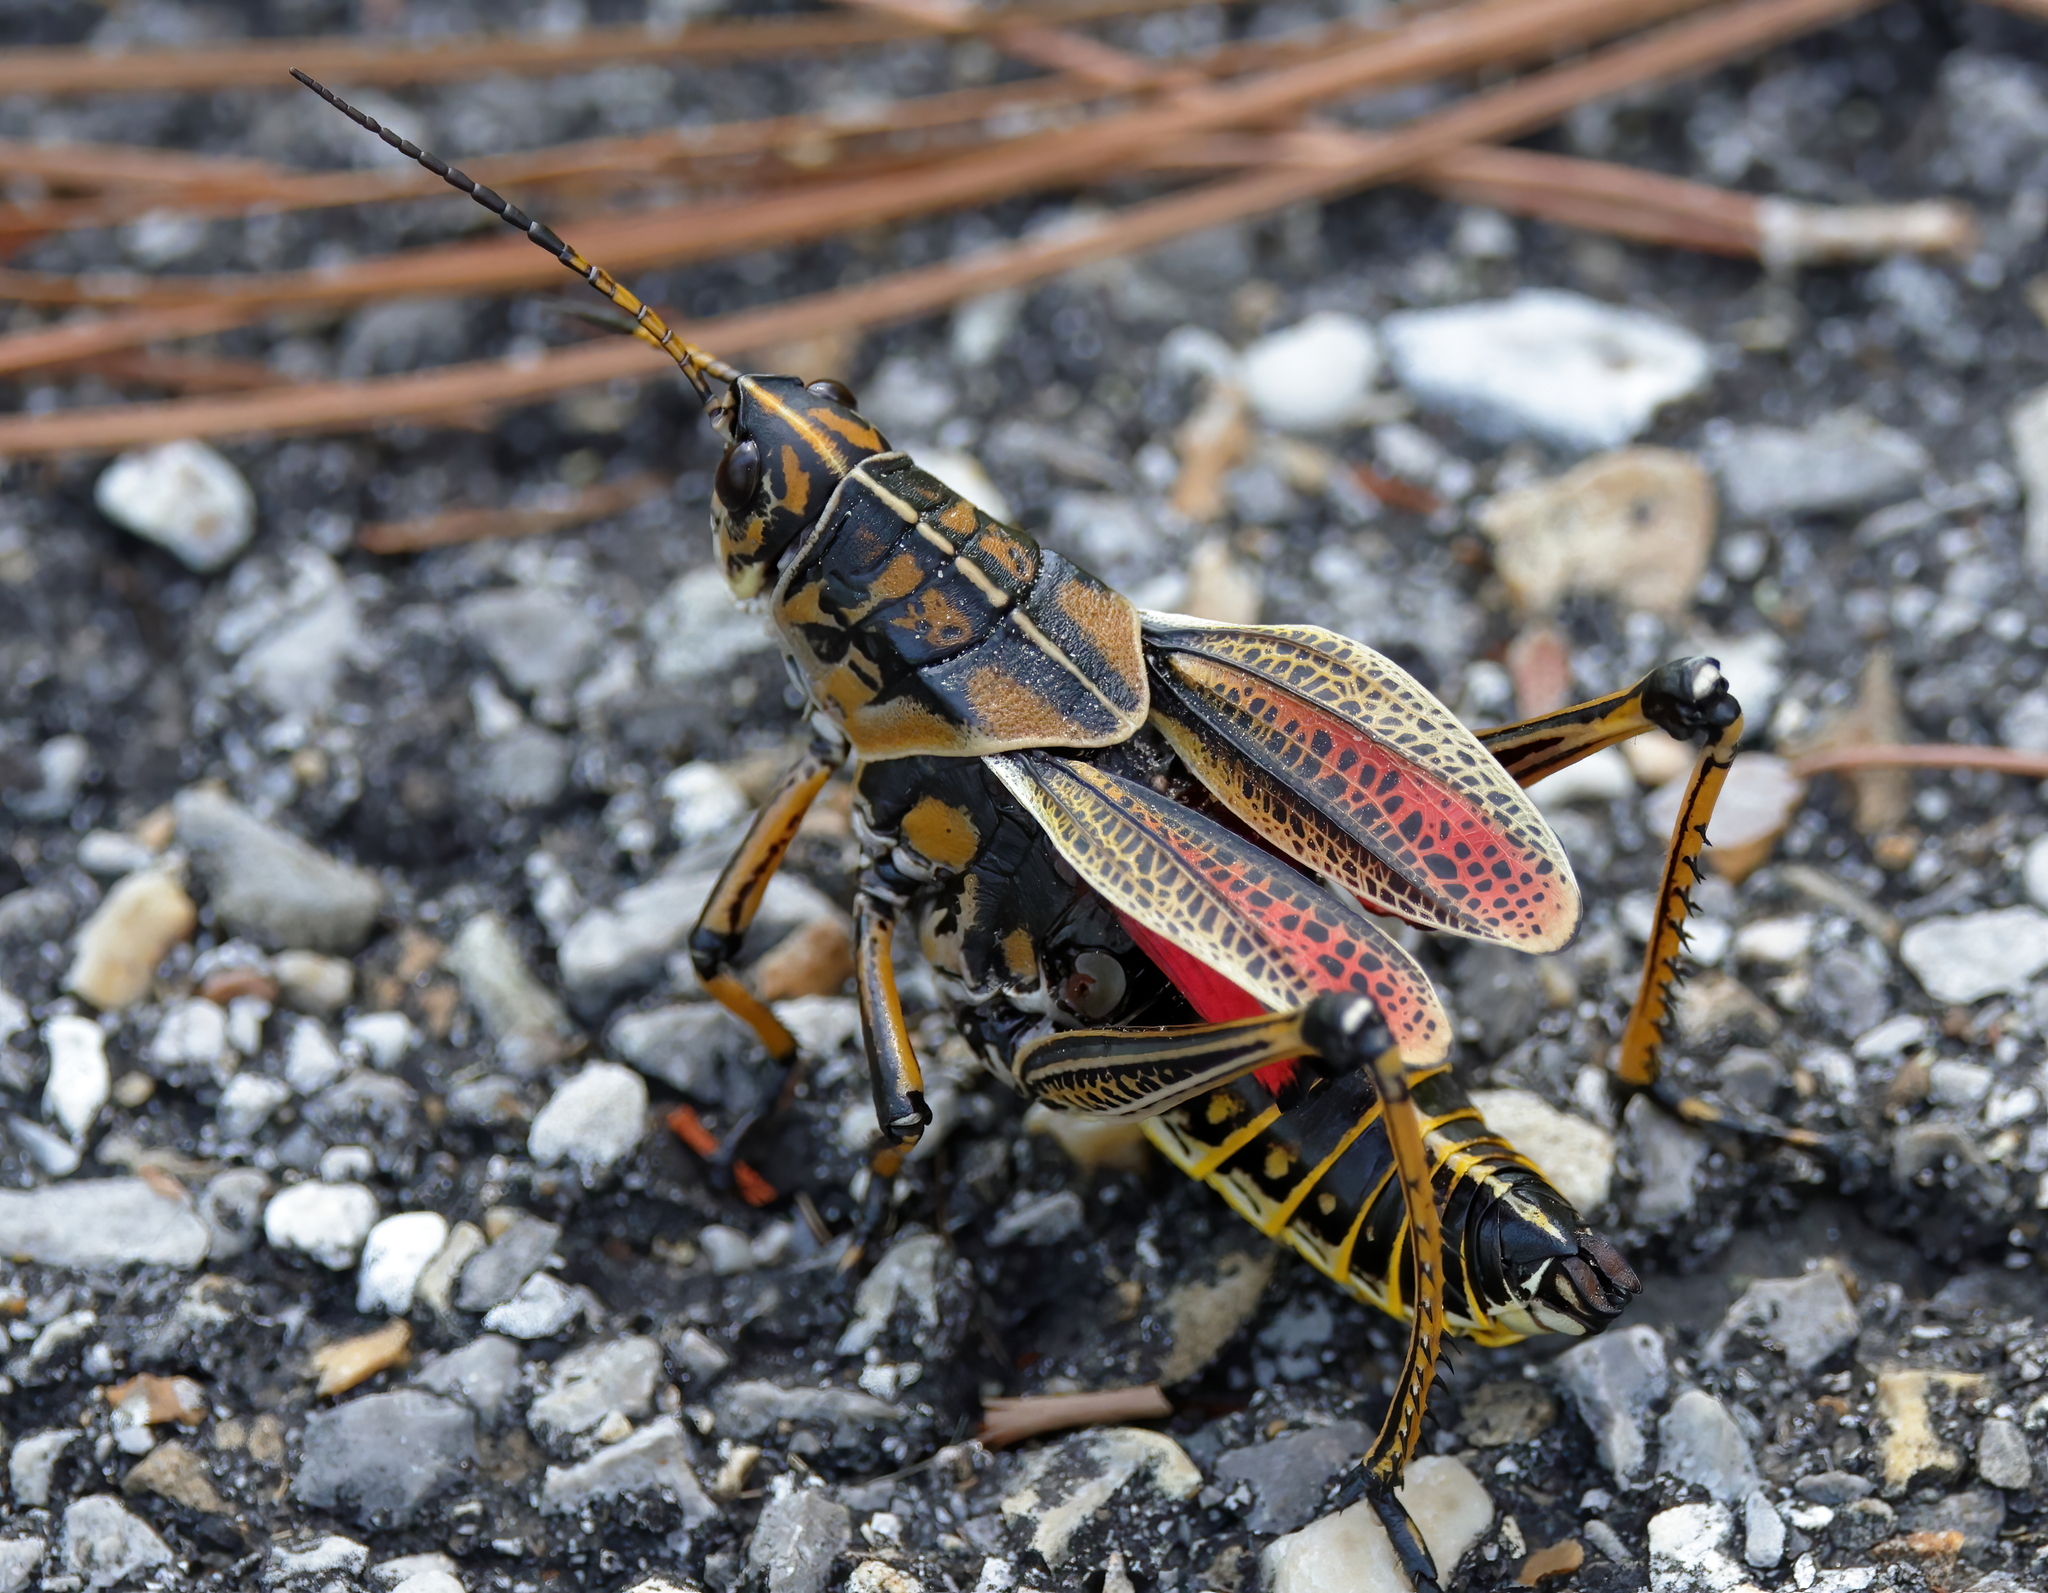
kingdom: Animalia
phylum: Arthropoda
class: Insecta
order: Orthoptera
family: Romaleidae
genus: Romalea
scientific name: Romalea microptera
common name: Eastern lubber grasshopper
